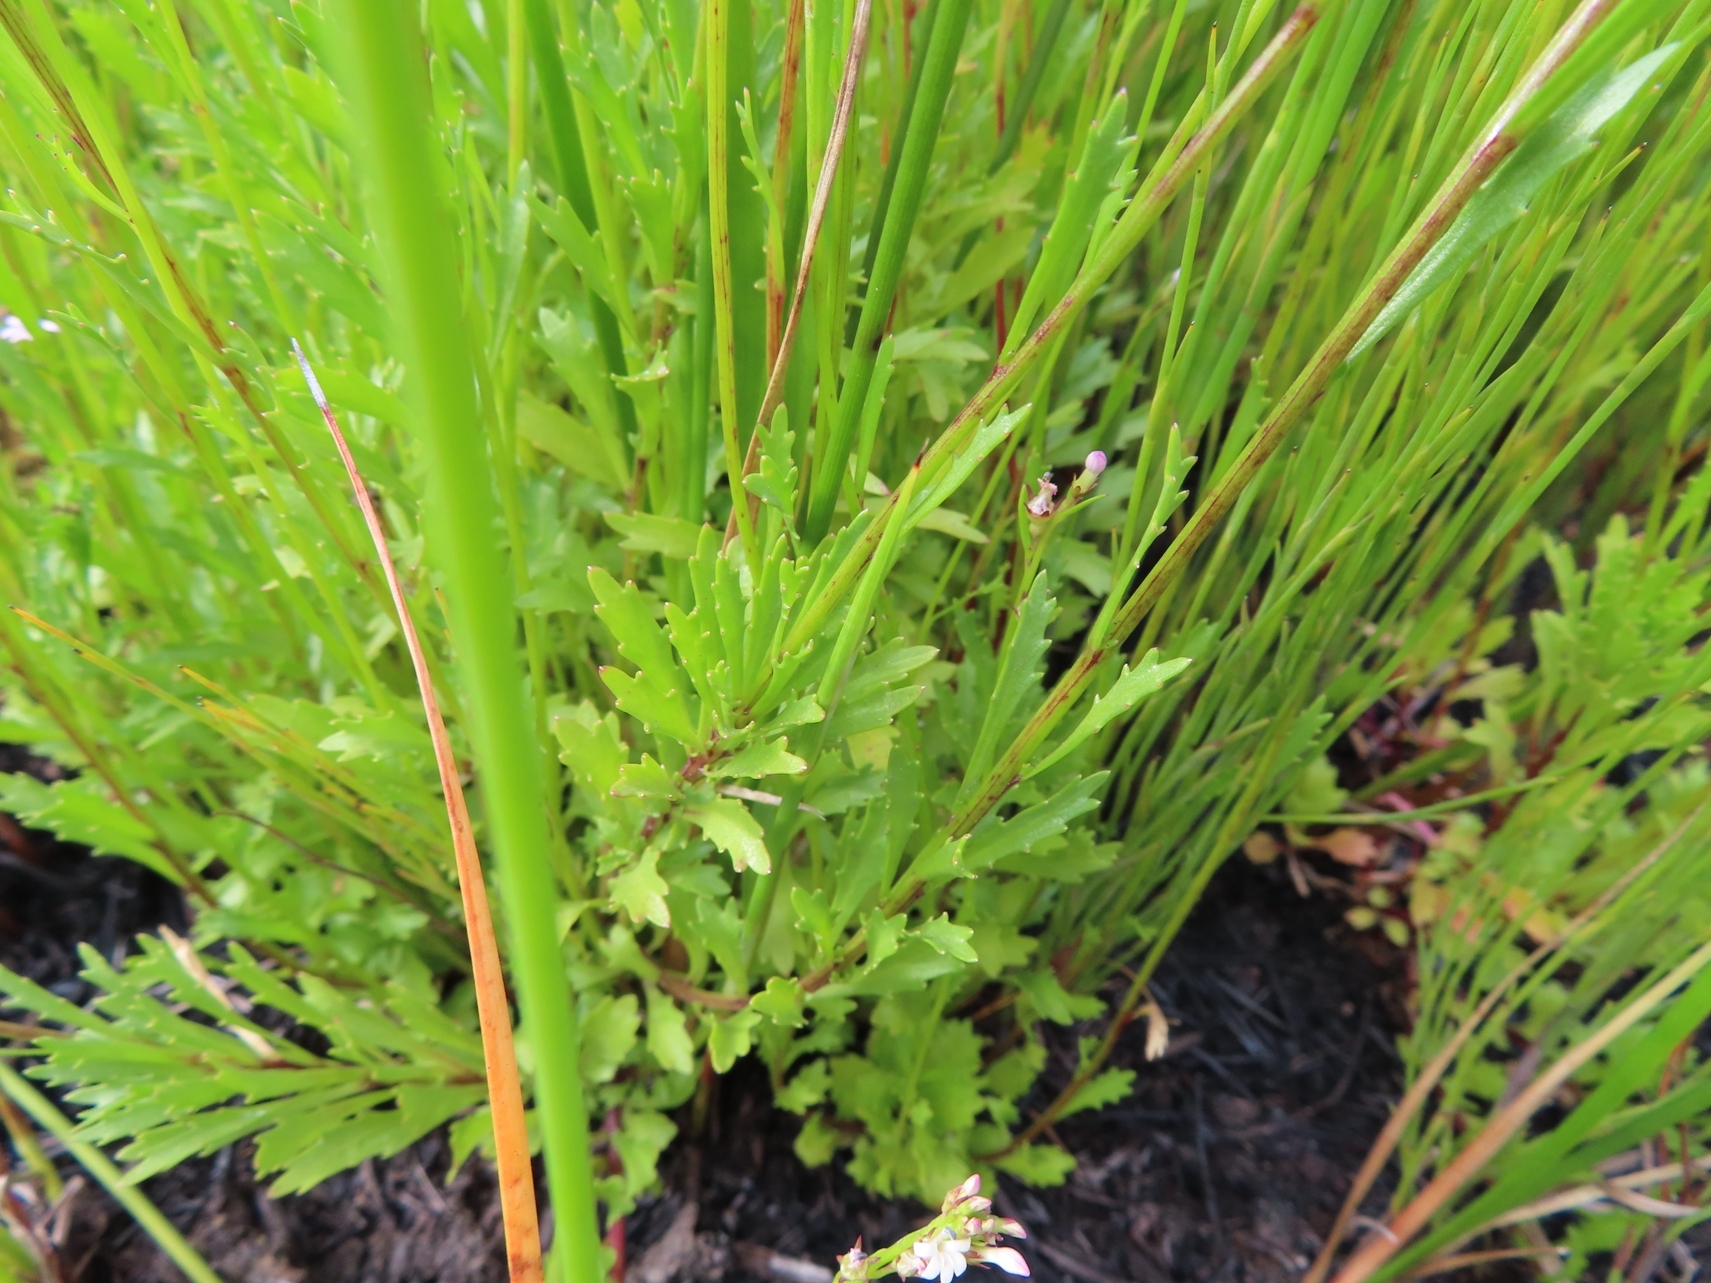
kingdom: Plantae
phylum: Tracheophyta
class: Magnoliopsida
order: Asterales
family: Campanulaceae
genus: Lobelia
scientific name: Lobelia jasionoides
